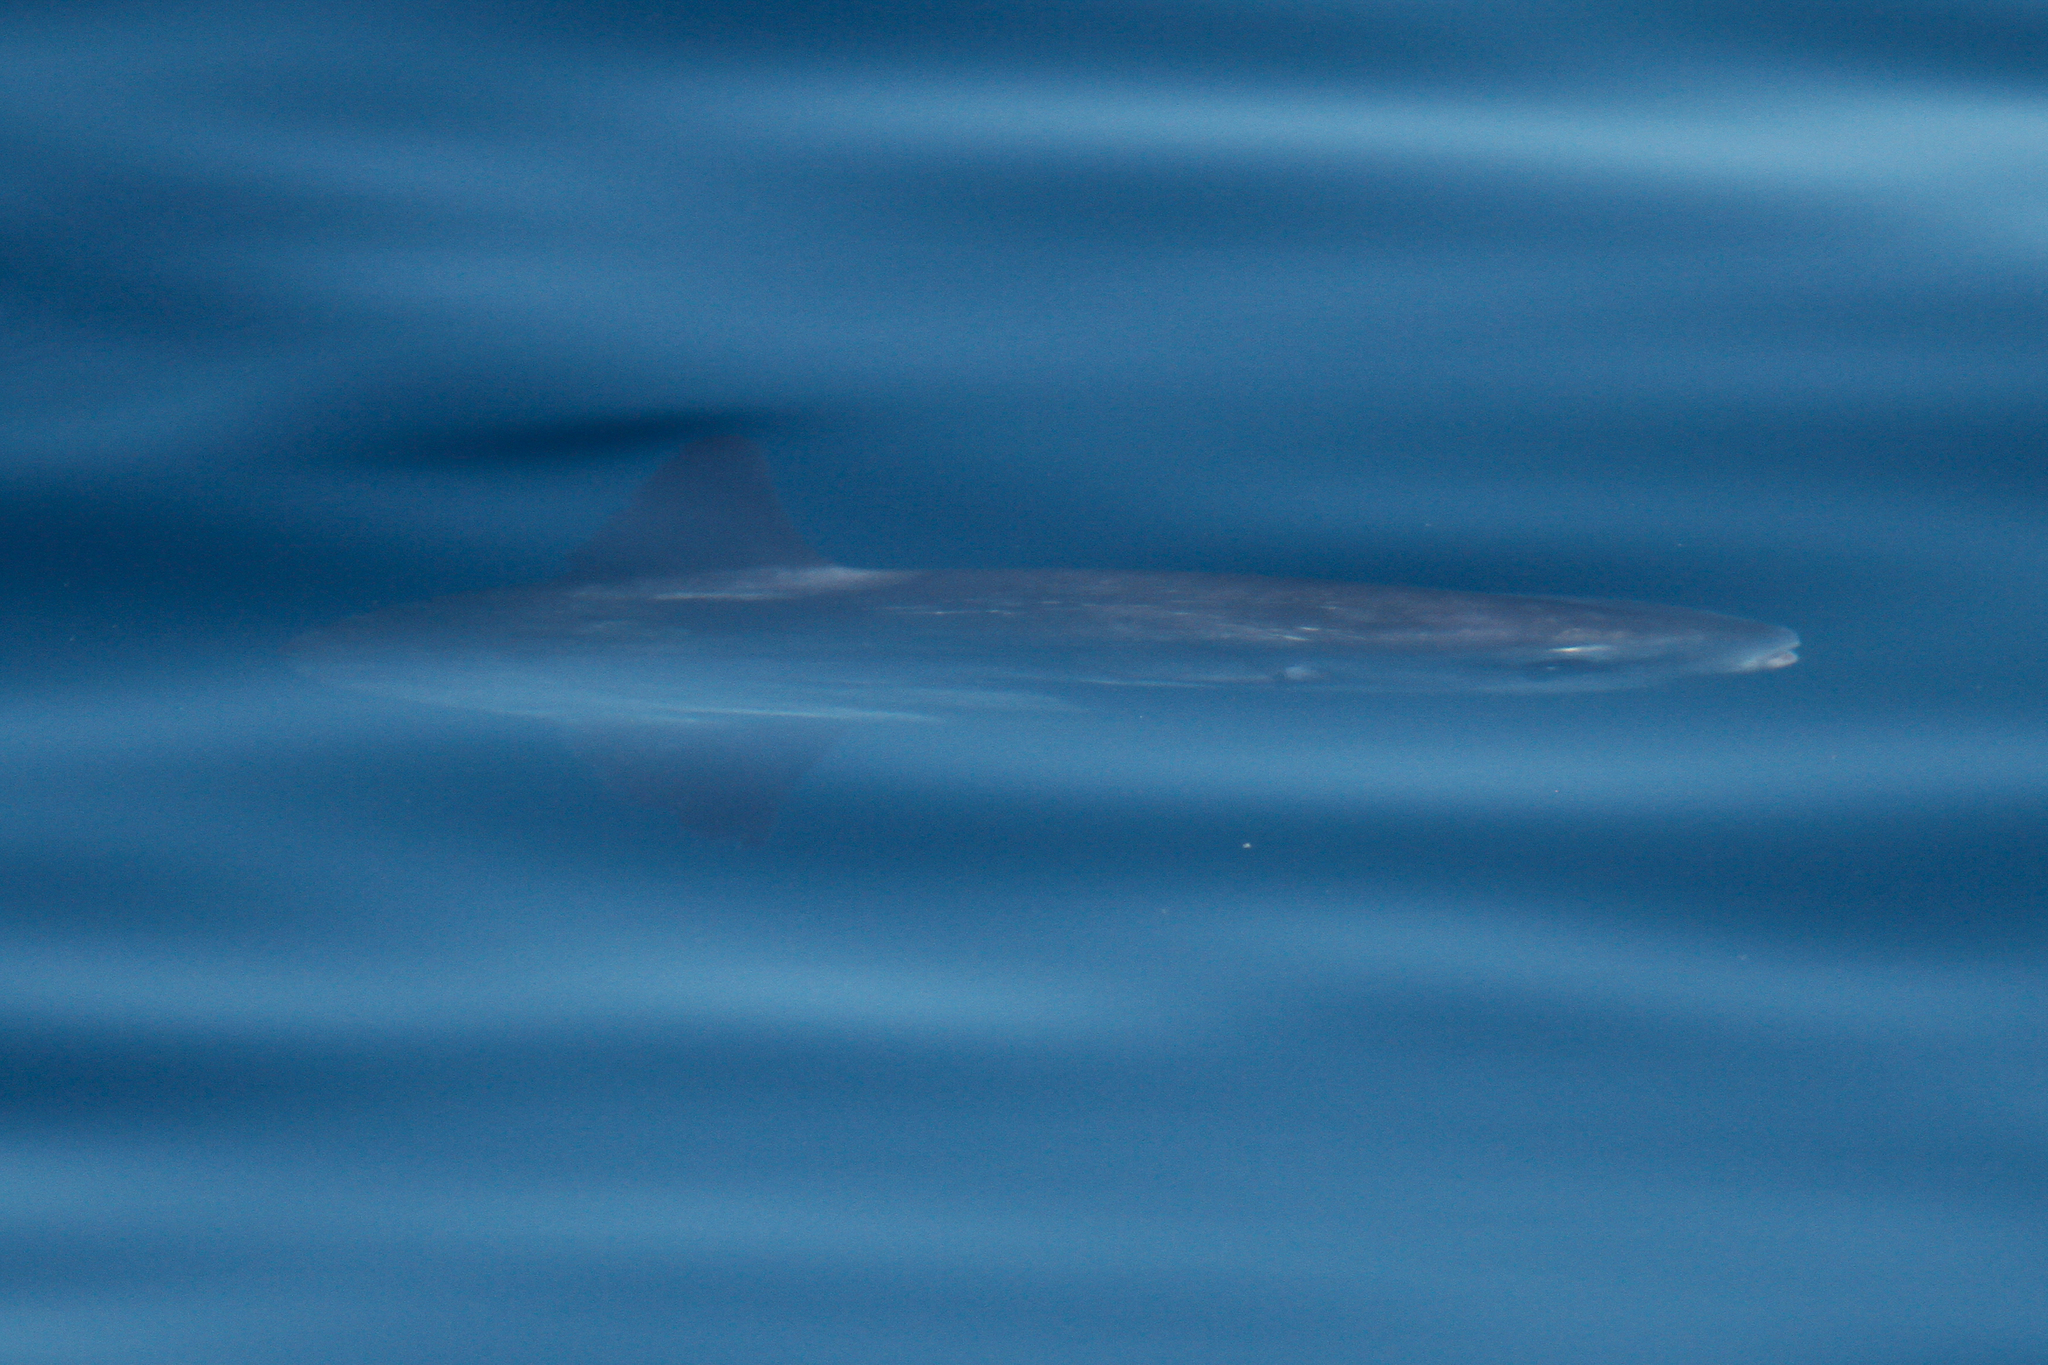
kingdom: Animalia
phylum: Chordata
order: Tetraodontiformes
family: Molidae
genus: Mola
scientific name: Mola mola
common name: Ocean sunfish
